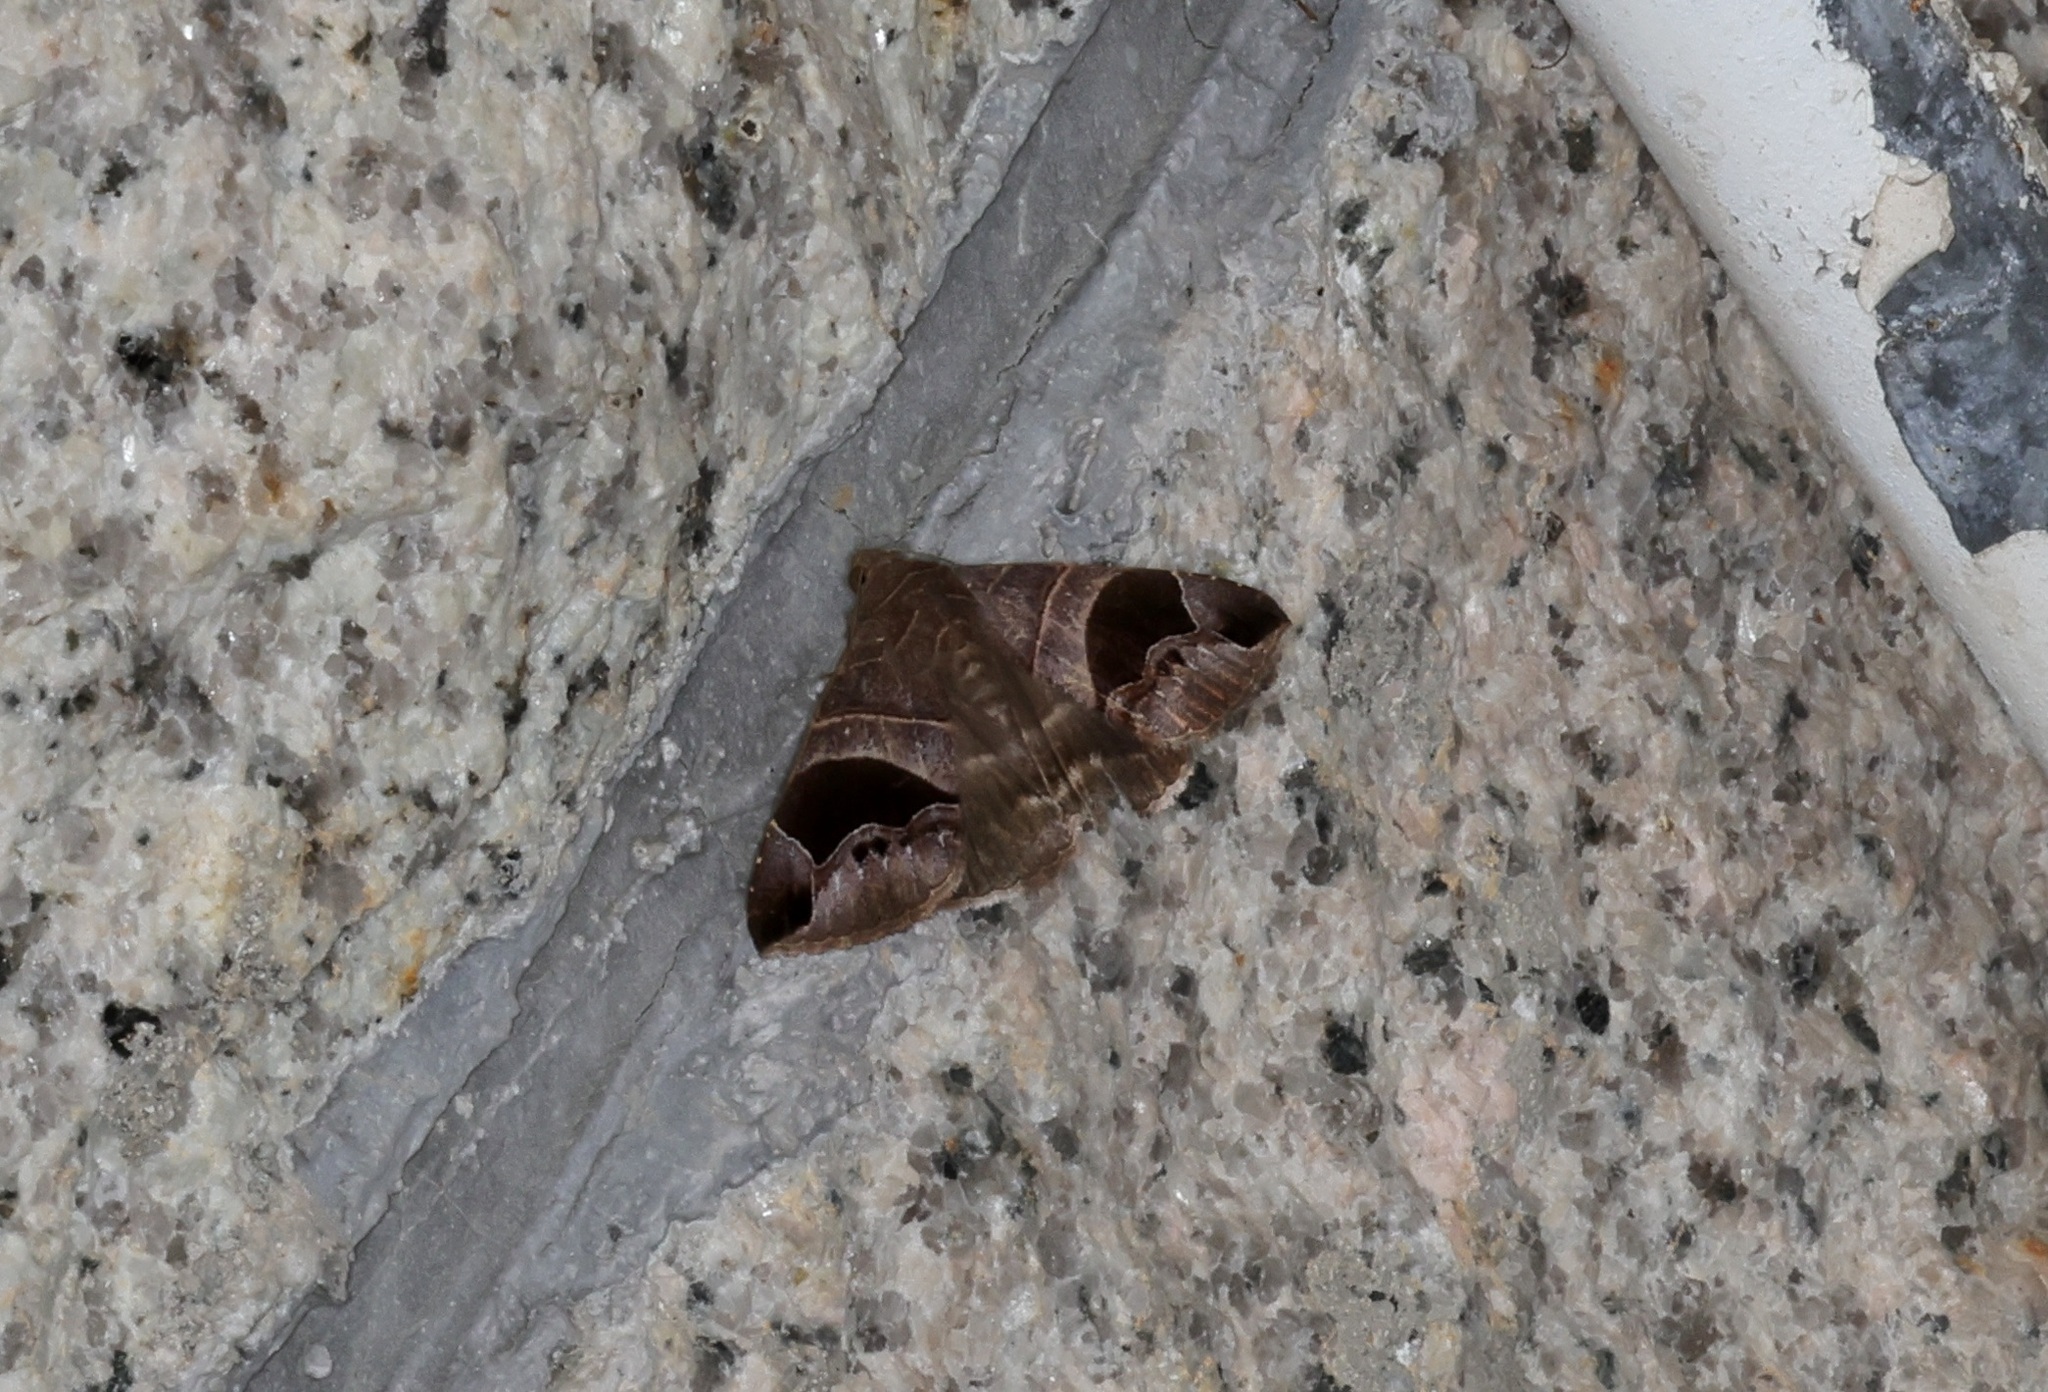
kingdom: Animalia
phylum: Arthropoda
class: Insecta
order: Lepidoptera
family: Erebidae
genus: Bastilla
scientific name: Bastilla joviana
